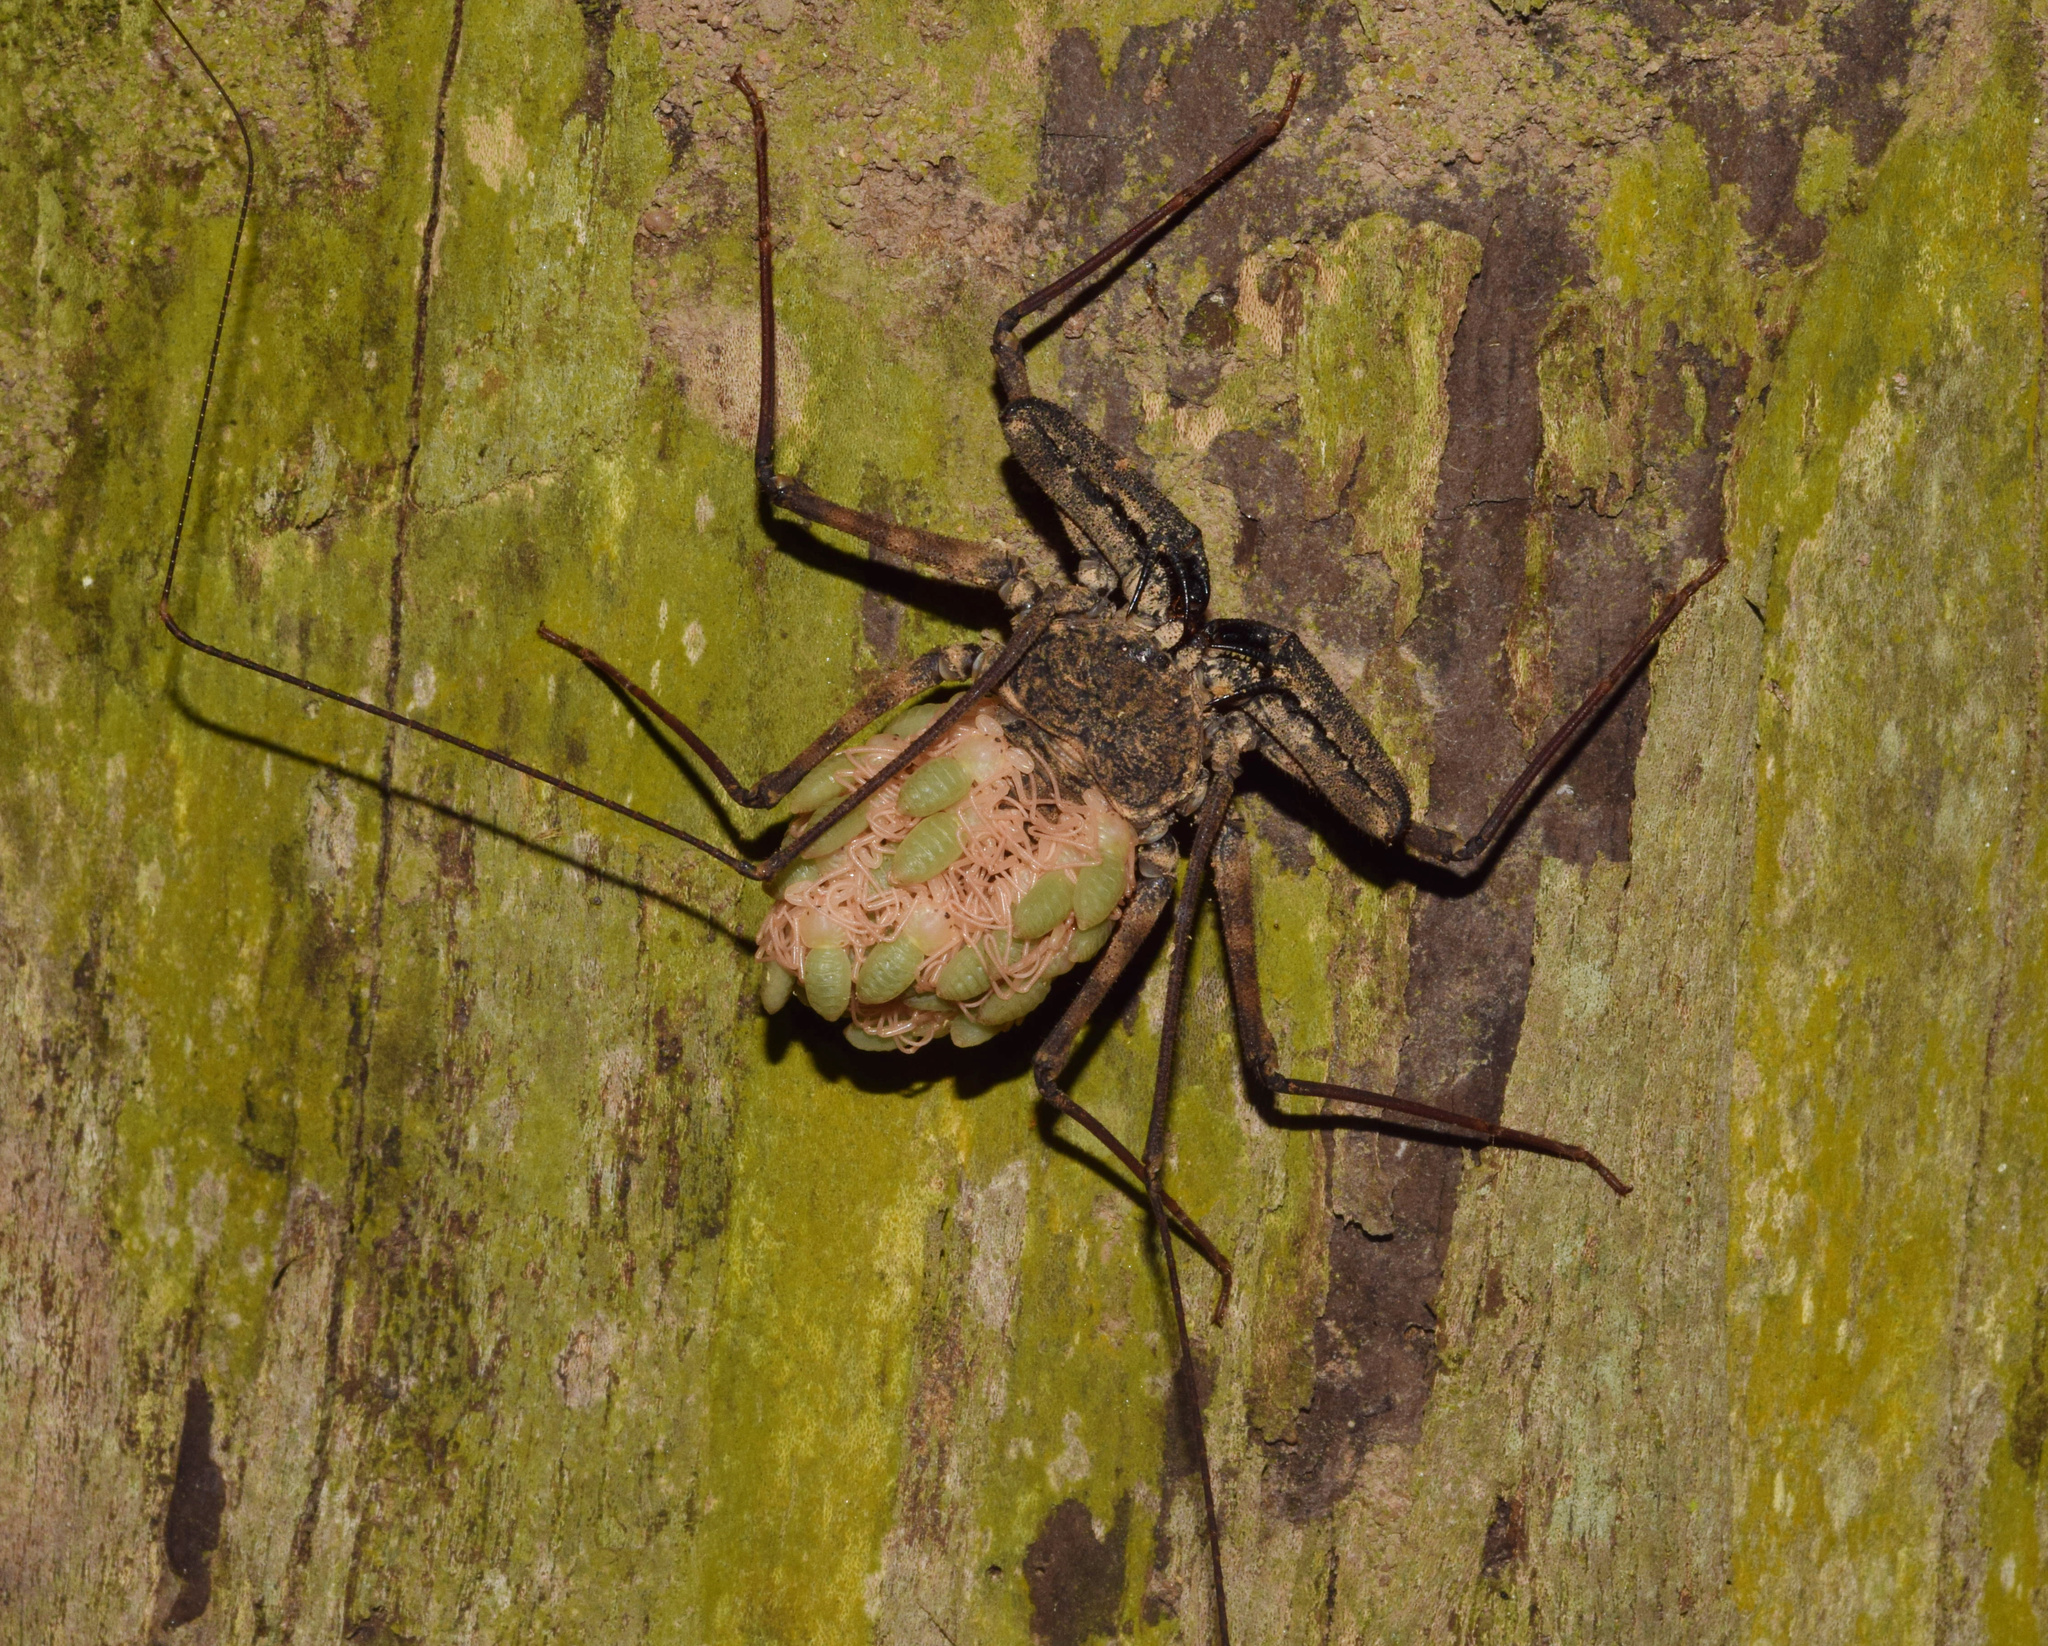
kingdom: Animalia
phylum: Arthropoda
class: Arachnida
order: Amblypygi
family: Phrynichidae
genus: Damon
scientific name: Damon annulatipes
